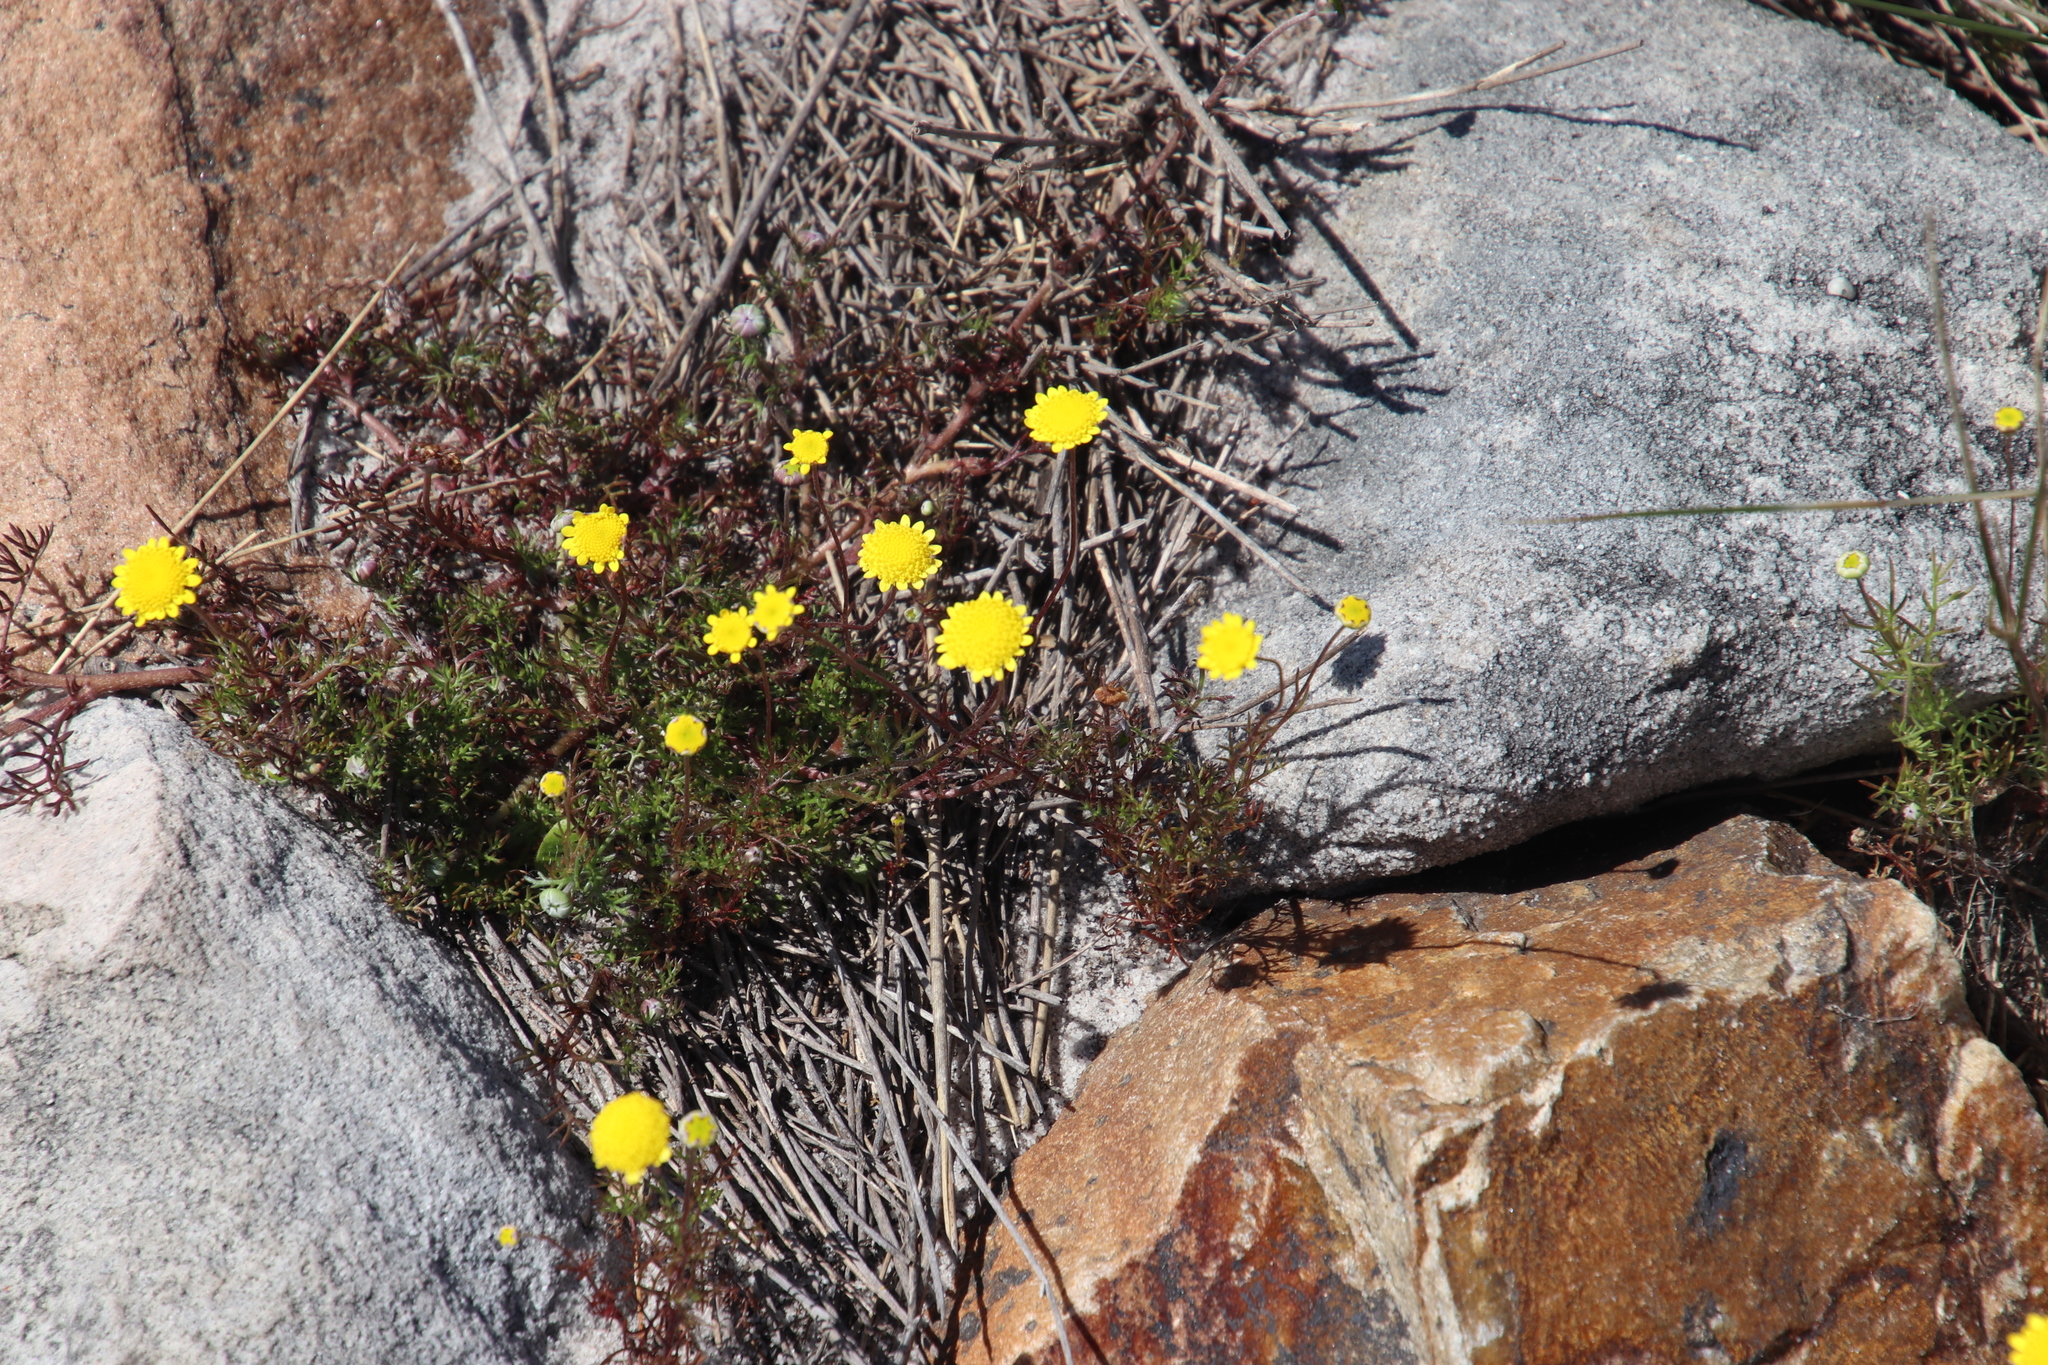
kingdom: Plantae
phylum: Tracheophyta
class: Magnoliopsida
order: Asterales
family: Asteraceae
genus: Cotula
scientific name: Cotula pruinosa
